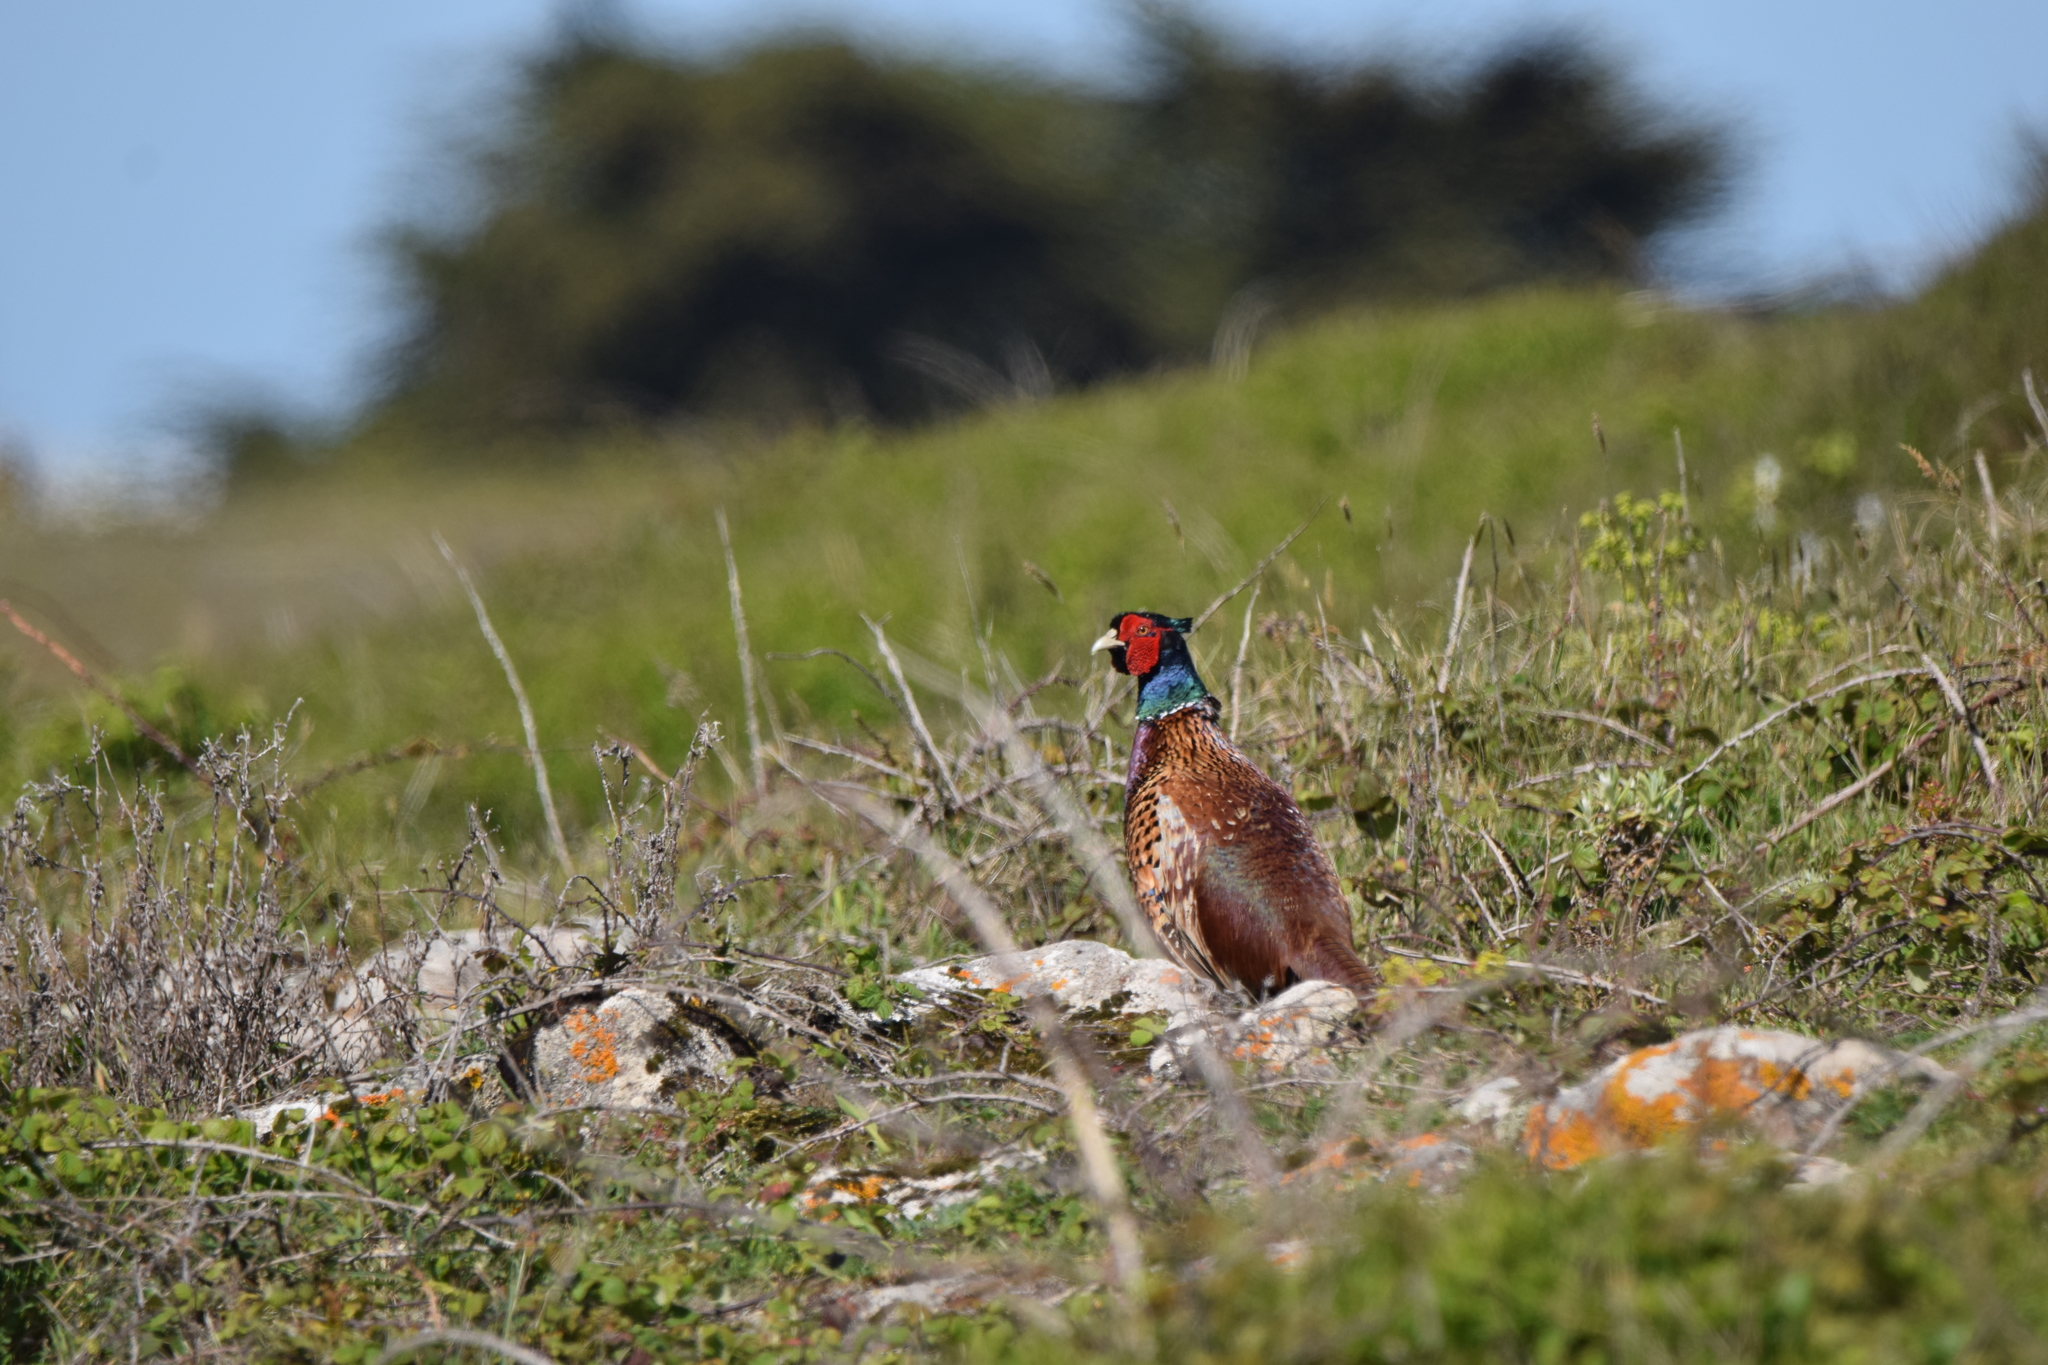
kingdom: Animalia
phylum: Chordata
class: Aves
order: Galliformes
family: Phasianidae
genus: Phasianus
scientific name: Phasianus colchicus
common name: Common pheasant
